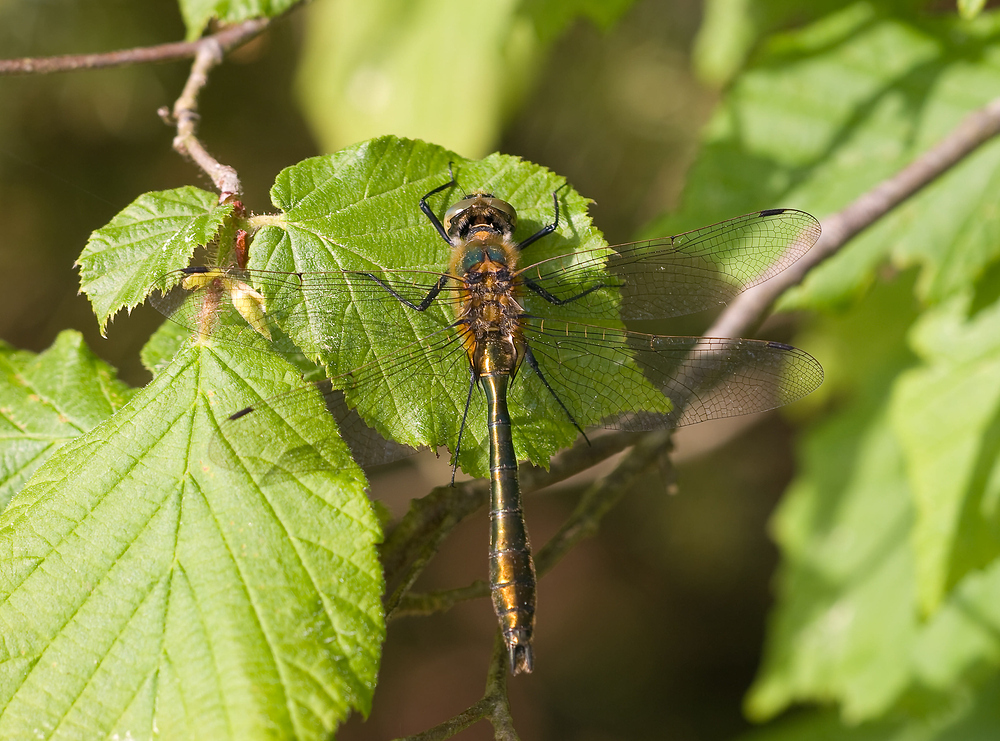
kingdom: Animalia
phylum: Arthropoda
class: Insecta
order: Odonata
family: Corduliidae
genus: Cordulia
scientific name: Cordulia aenea
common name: Downy emerald
